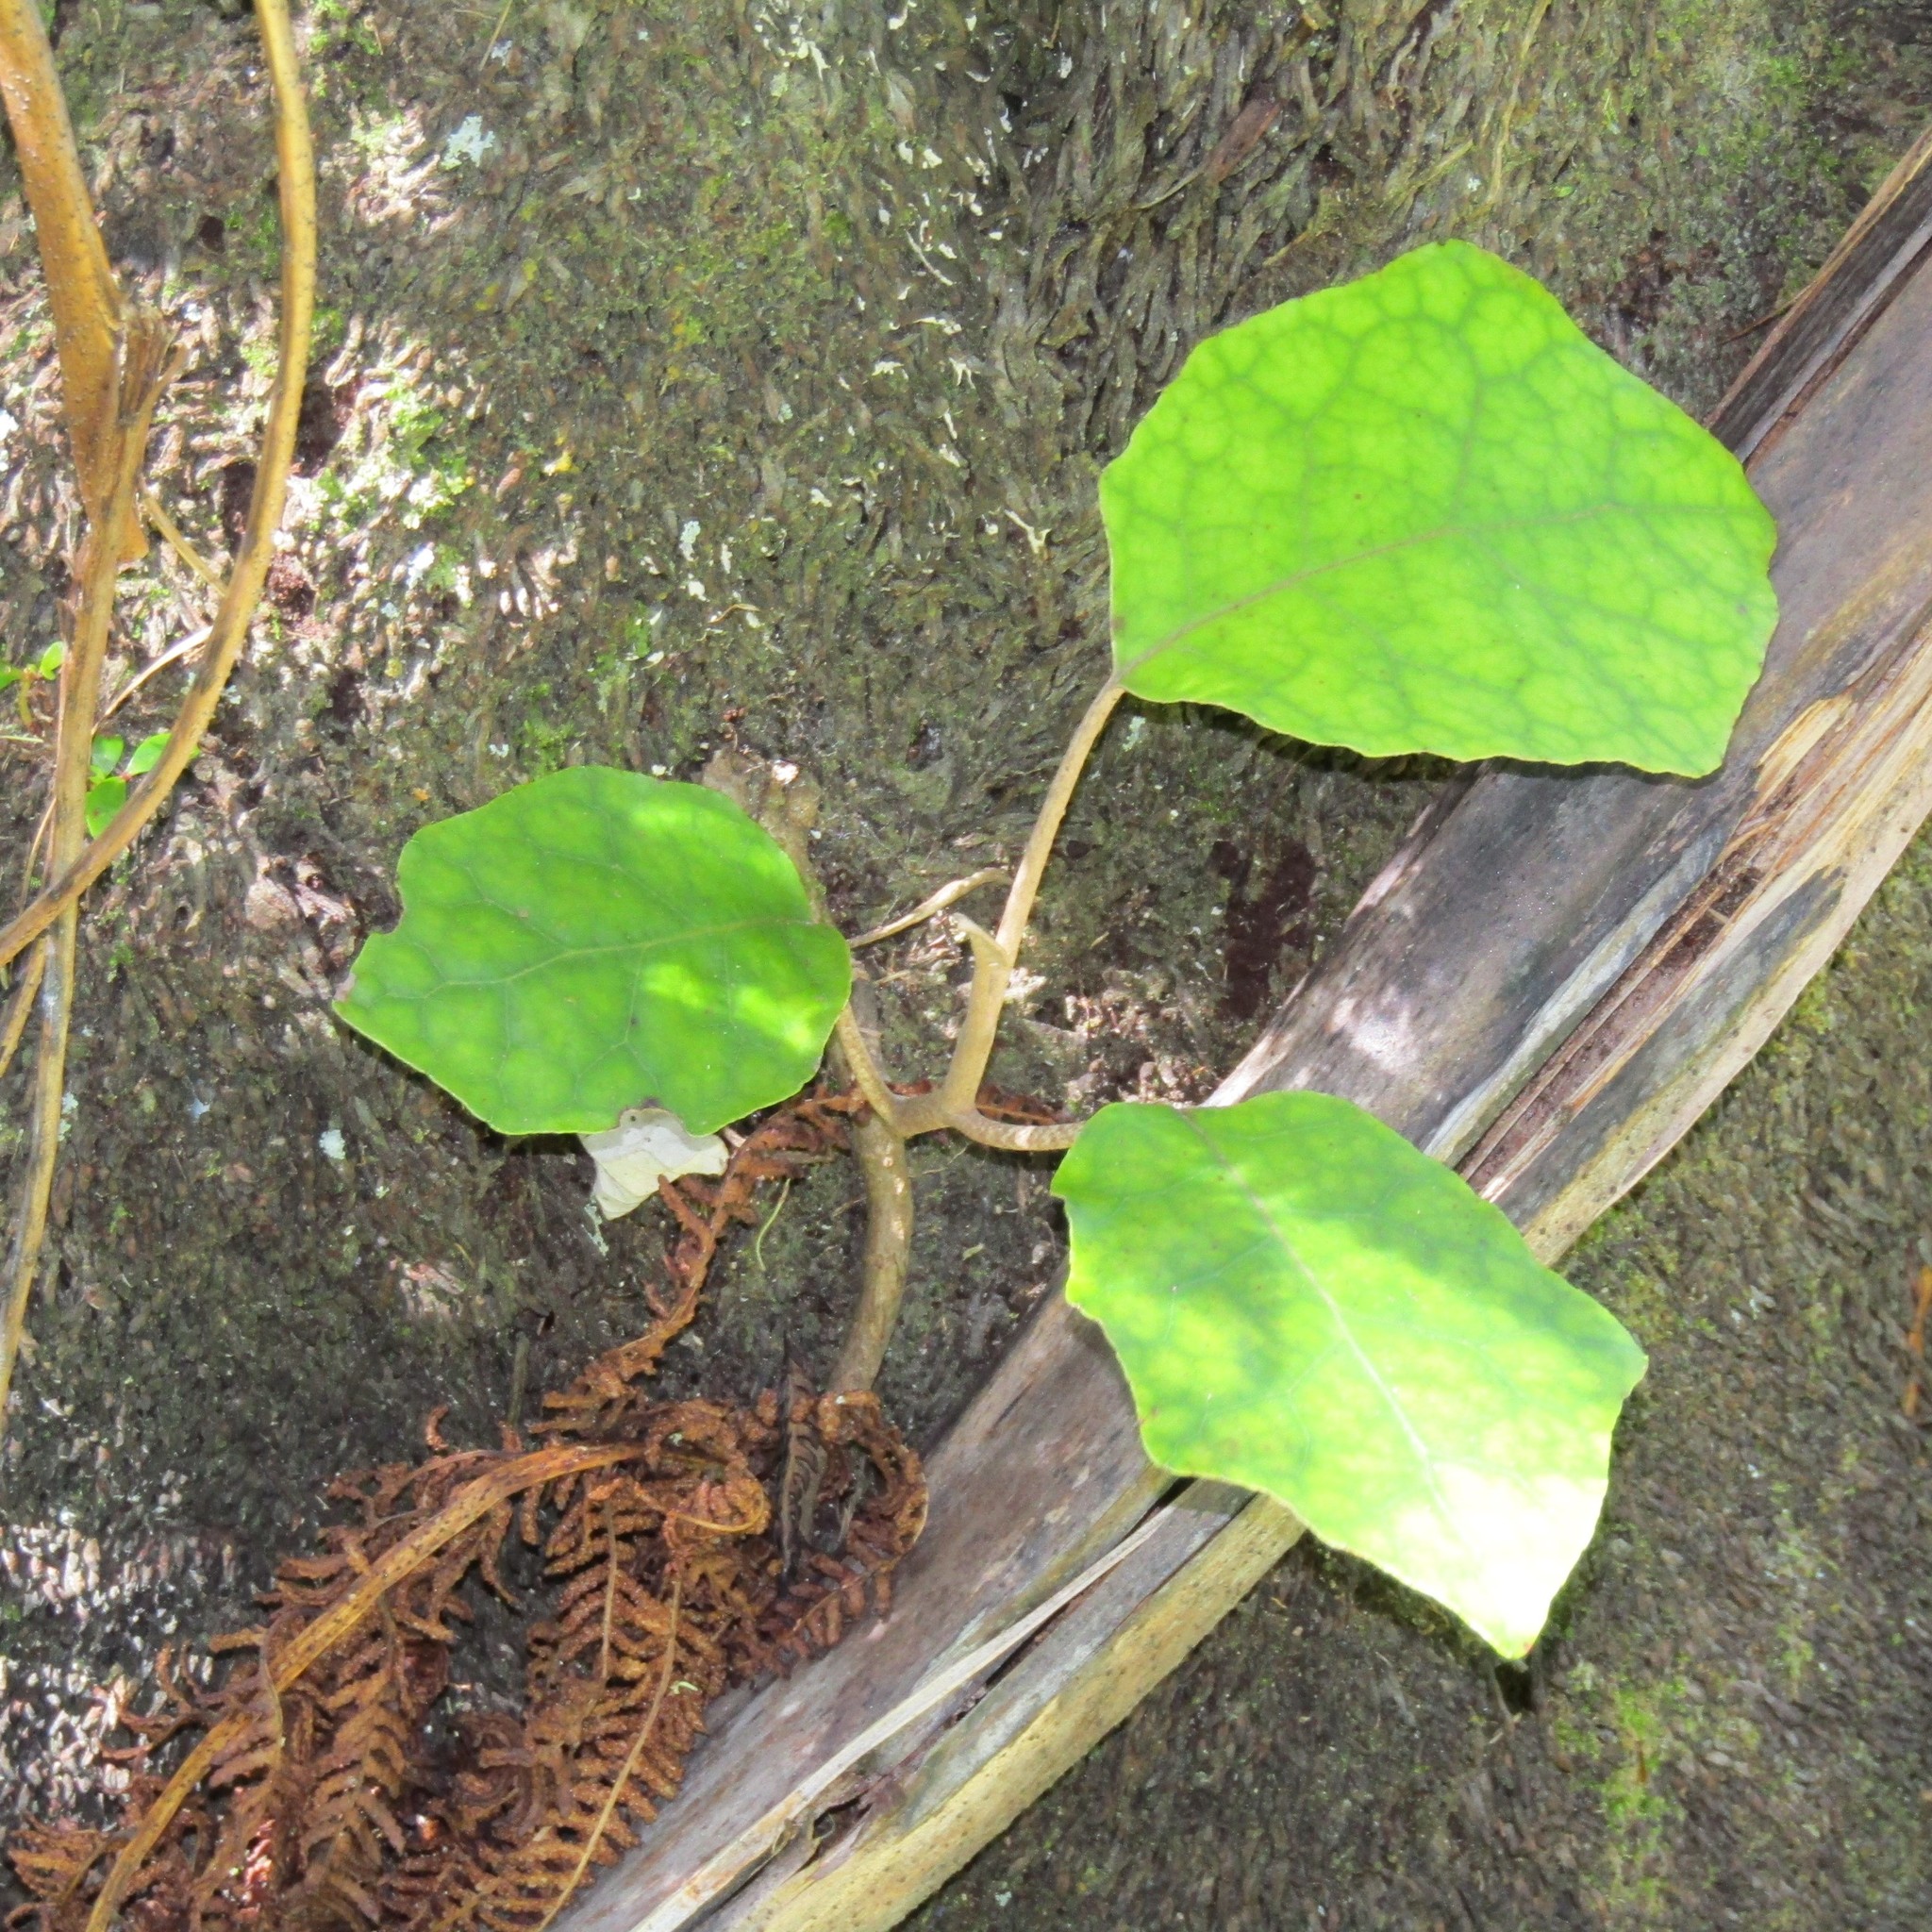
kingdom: Plantae
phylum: Tracheophyta
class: Magnoliopsida
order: Asterales
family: Asteraceae
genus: Brachyglottis
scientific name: Brachyglottis repanda
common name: Hedge ragwort
